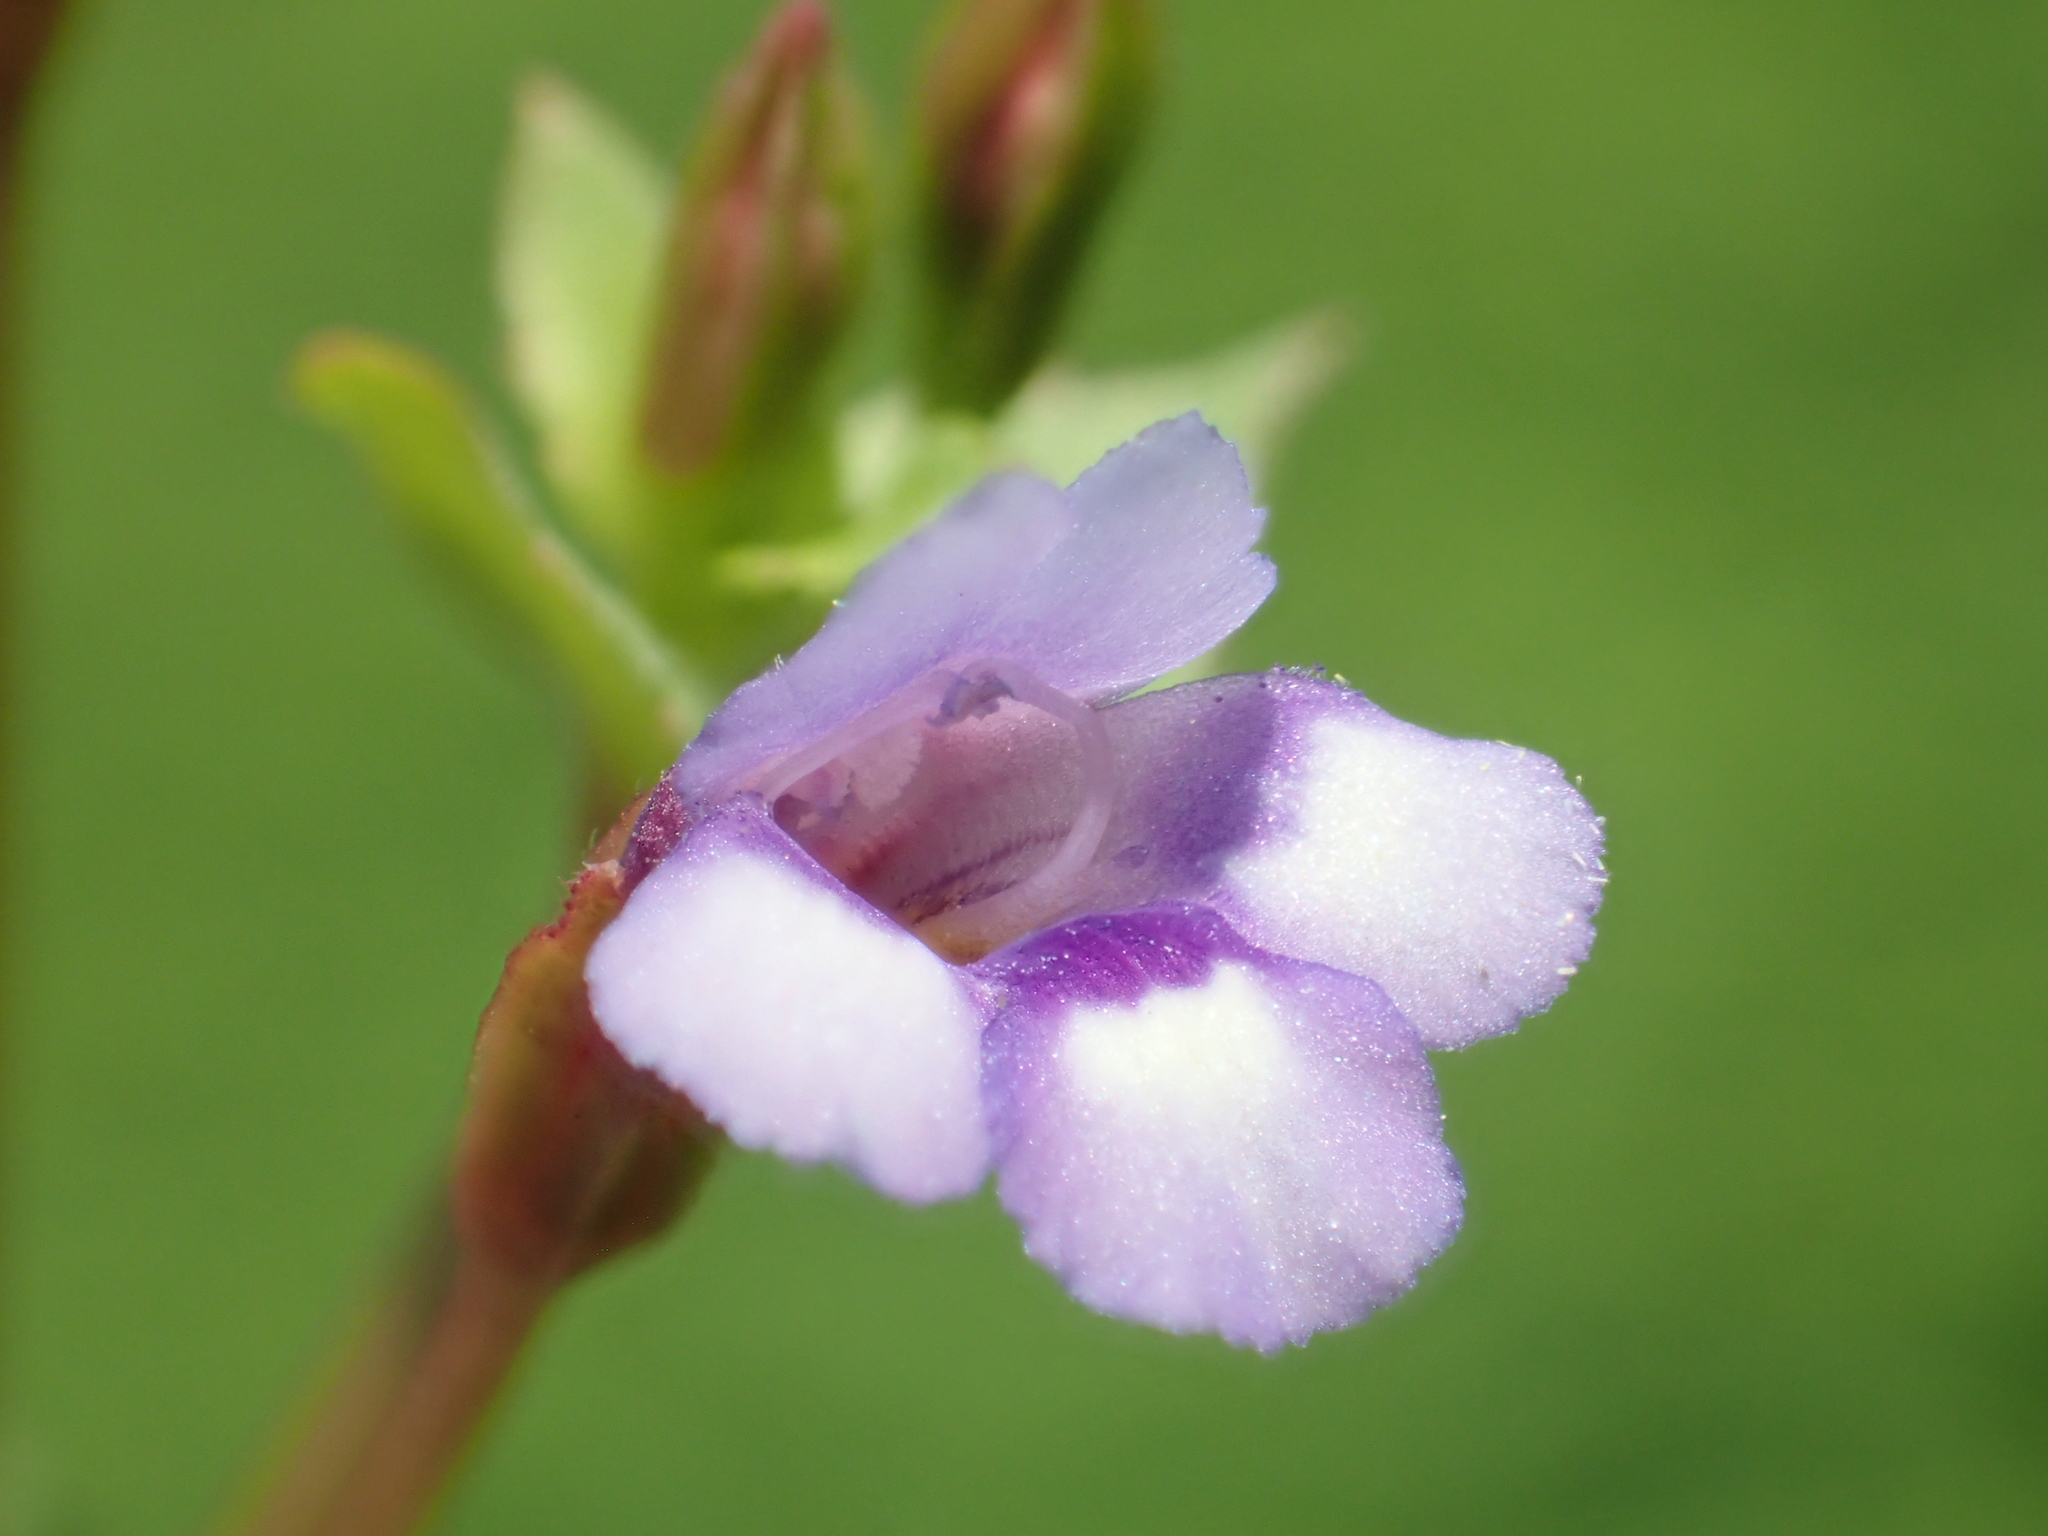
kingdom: Plantae
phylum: Tracheophyta
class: Magnoliopsida
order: Lamiales
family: Linderniaceae
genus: Torenia
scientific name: Torenia crustacea
